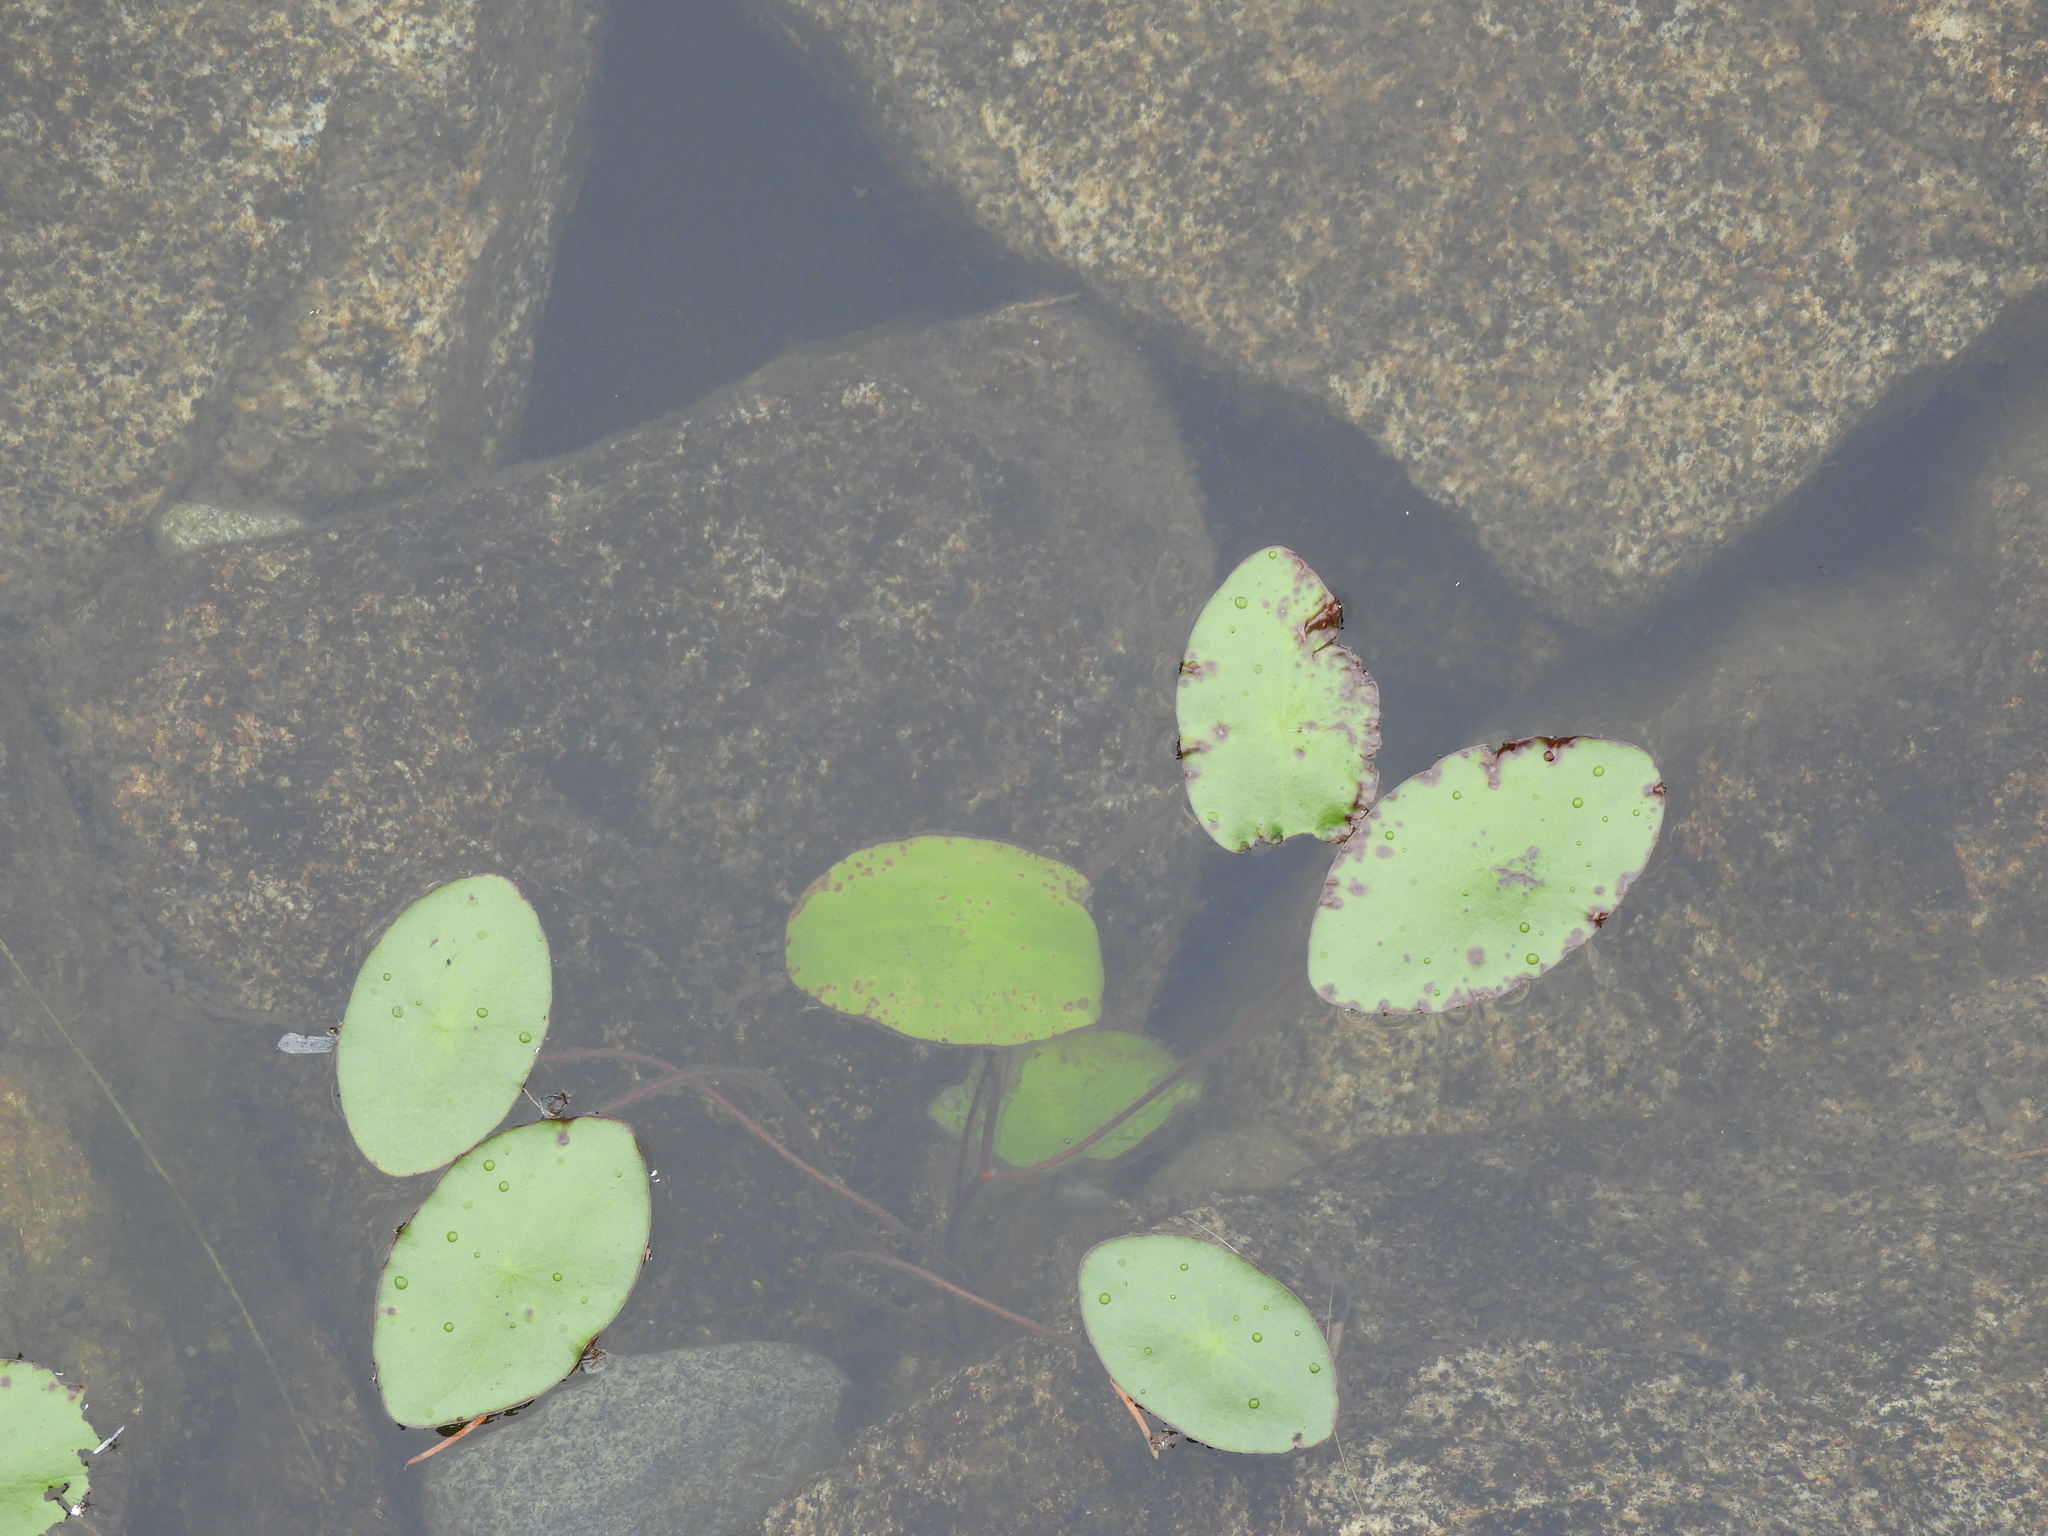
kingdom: Plantae
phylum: Tracheophyta
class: Magnoliopsida
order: Nymphaeales
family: Cabombaceae
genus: Brasenia
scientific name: Brasenia schreberi
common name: Water-shield
